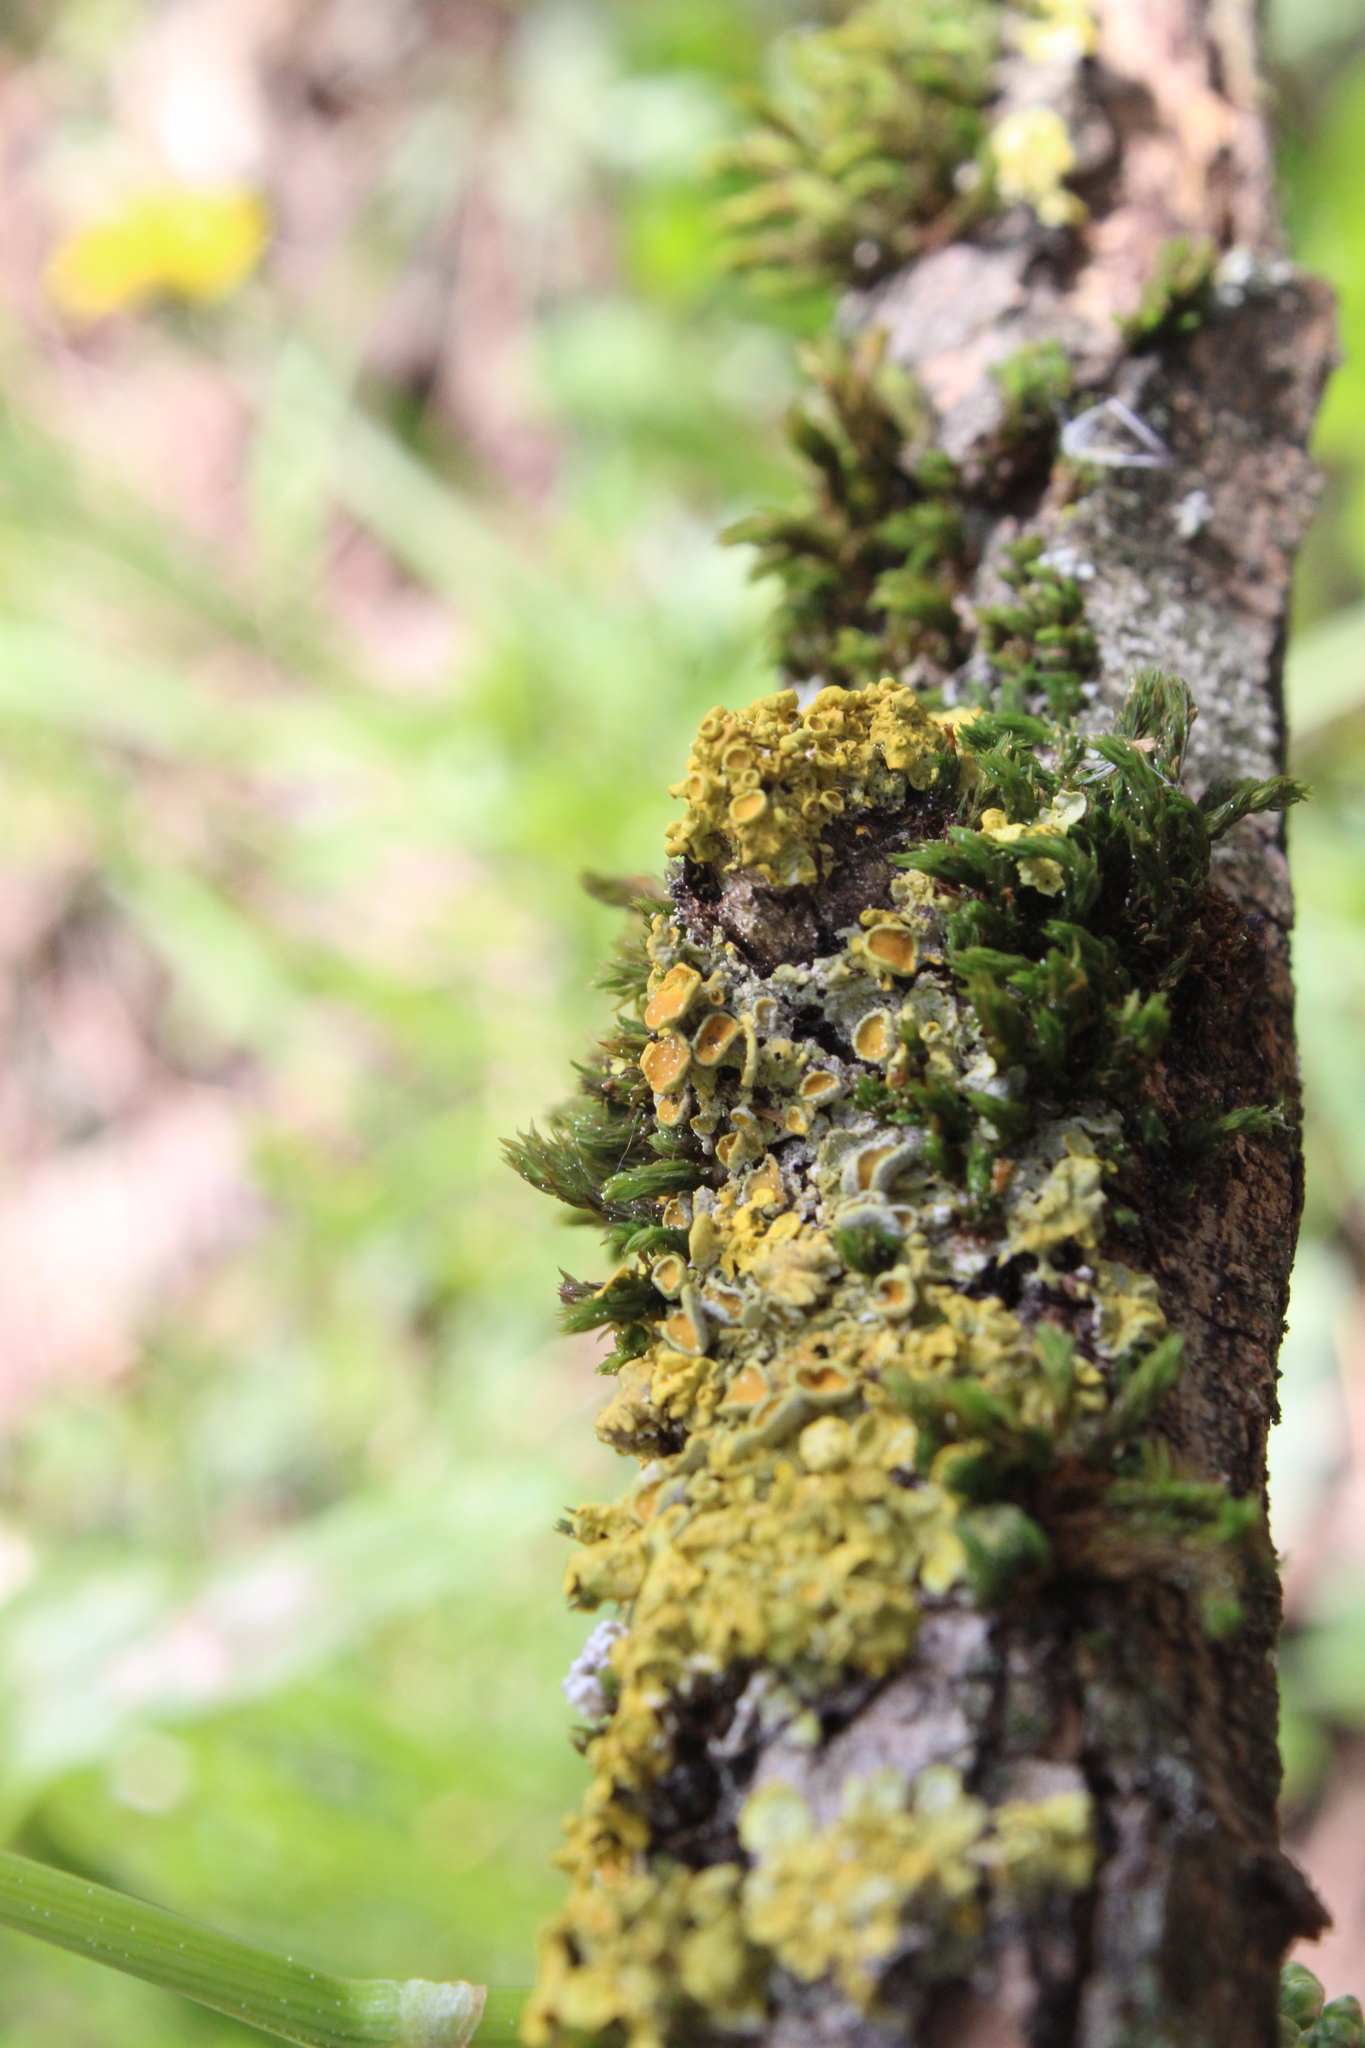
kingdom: Fungi
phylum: Ascomycota
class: Lecanoromycetes
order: Teloschistales
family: Teloschistaceae
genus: Xanthoria
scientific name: Xanthoria parietina
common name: Common orange lichen
